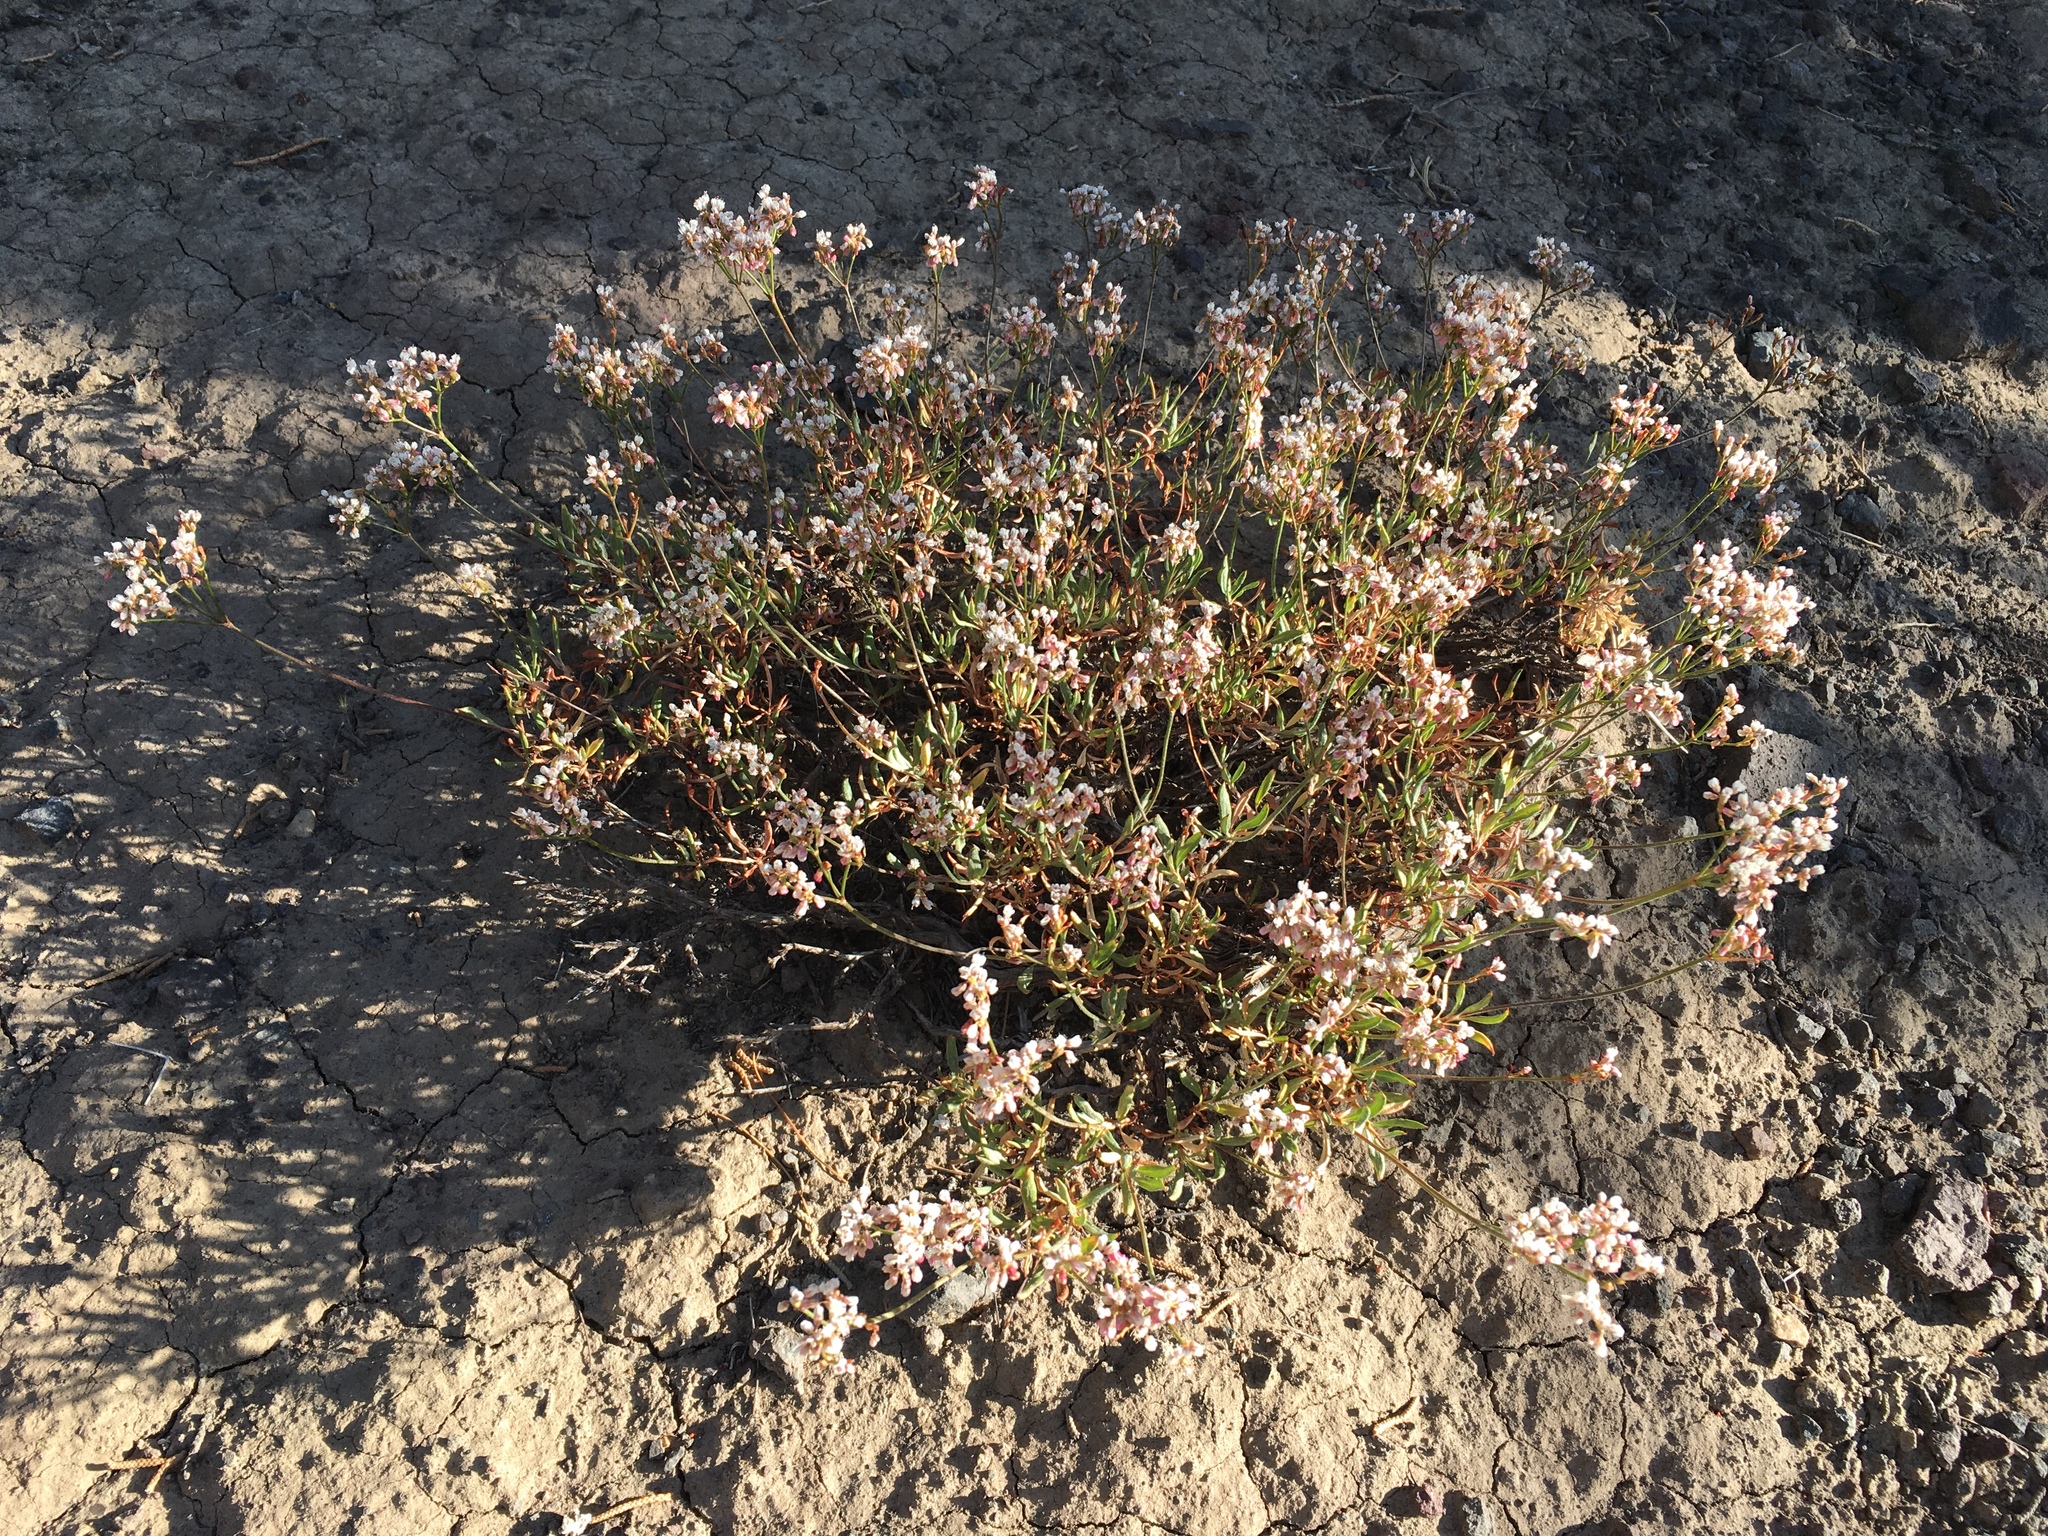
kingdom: Plantae
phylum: Tracheophyta
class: Magnoliopsida
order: Caryophyllales
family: Polygonaceae
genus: Eriogonum
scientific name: Eriogonum microtheca
